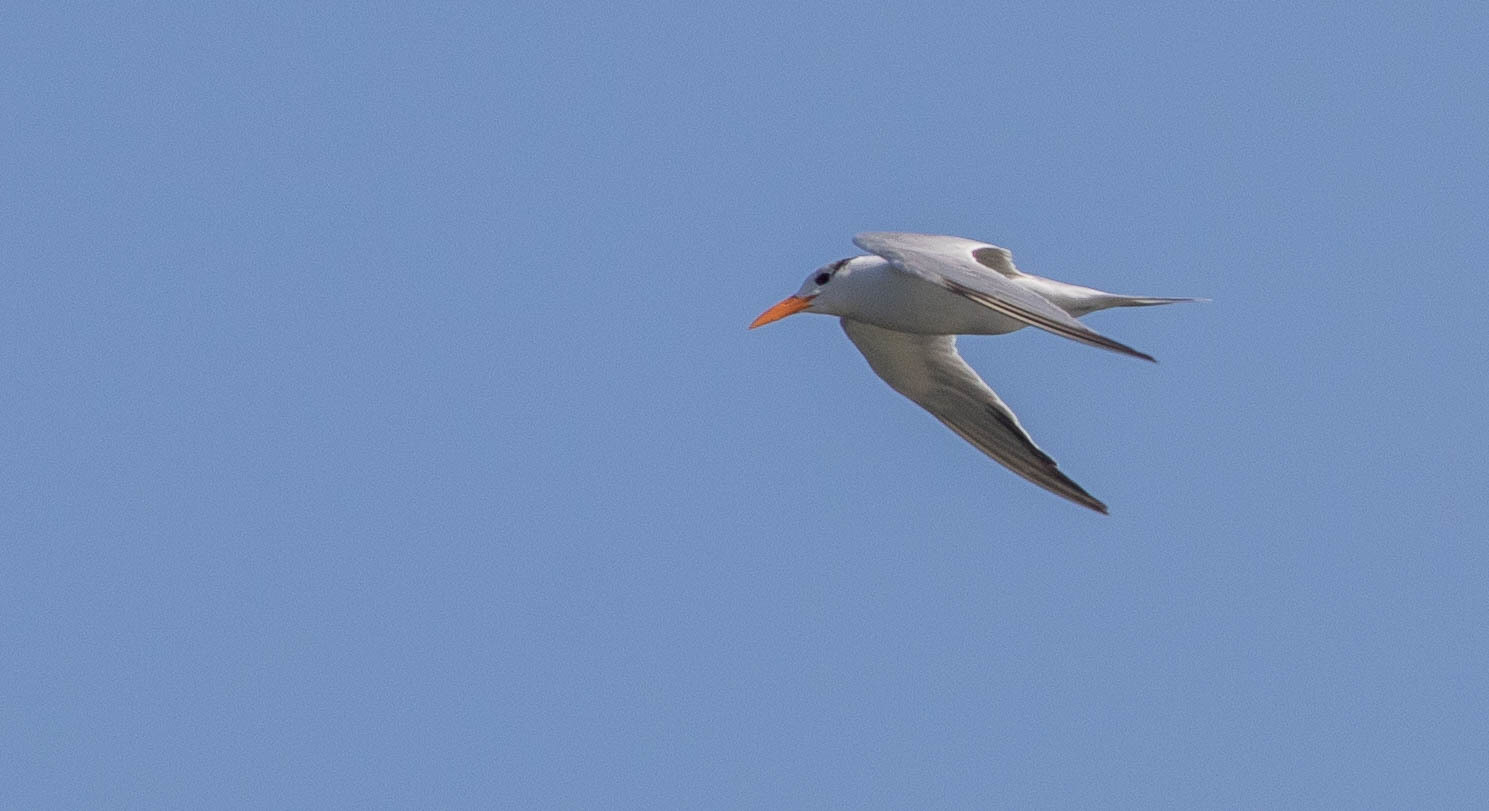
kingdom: Animalia
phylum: Chordata
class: Aves
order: Charadriiformes
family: Laridae
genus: Thalasseus
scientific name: Thalasseus maximus
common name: Royal tern
